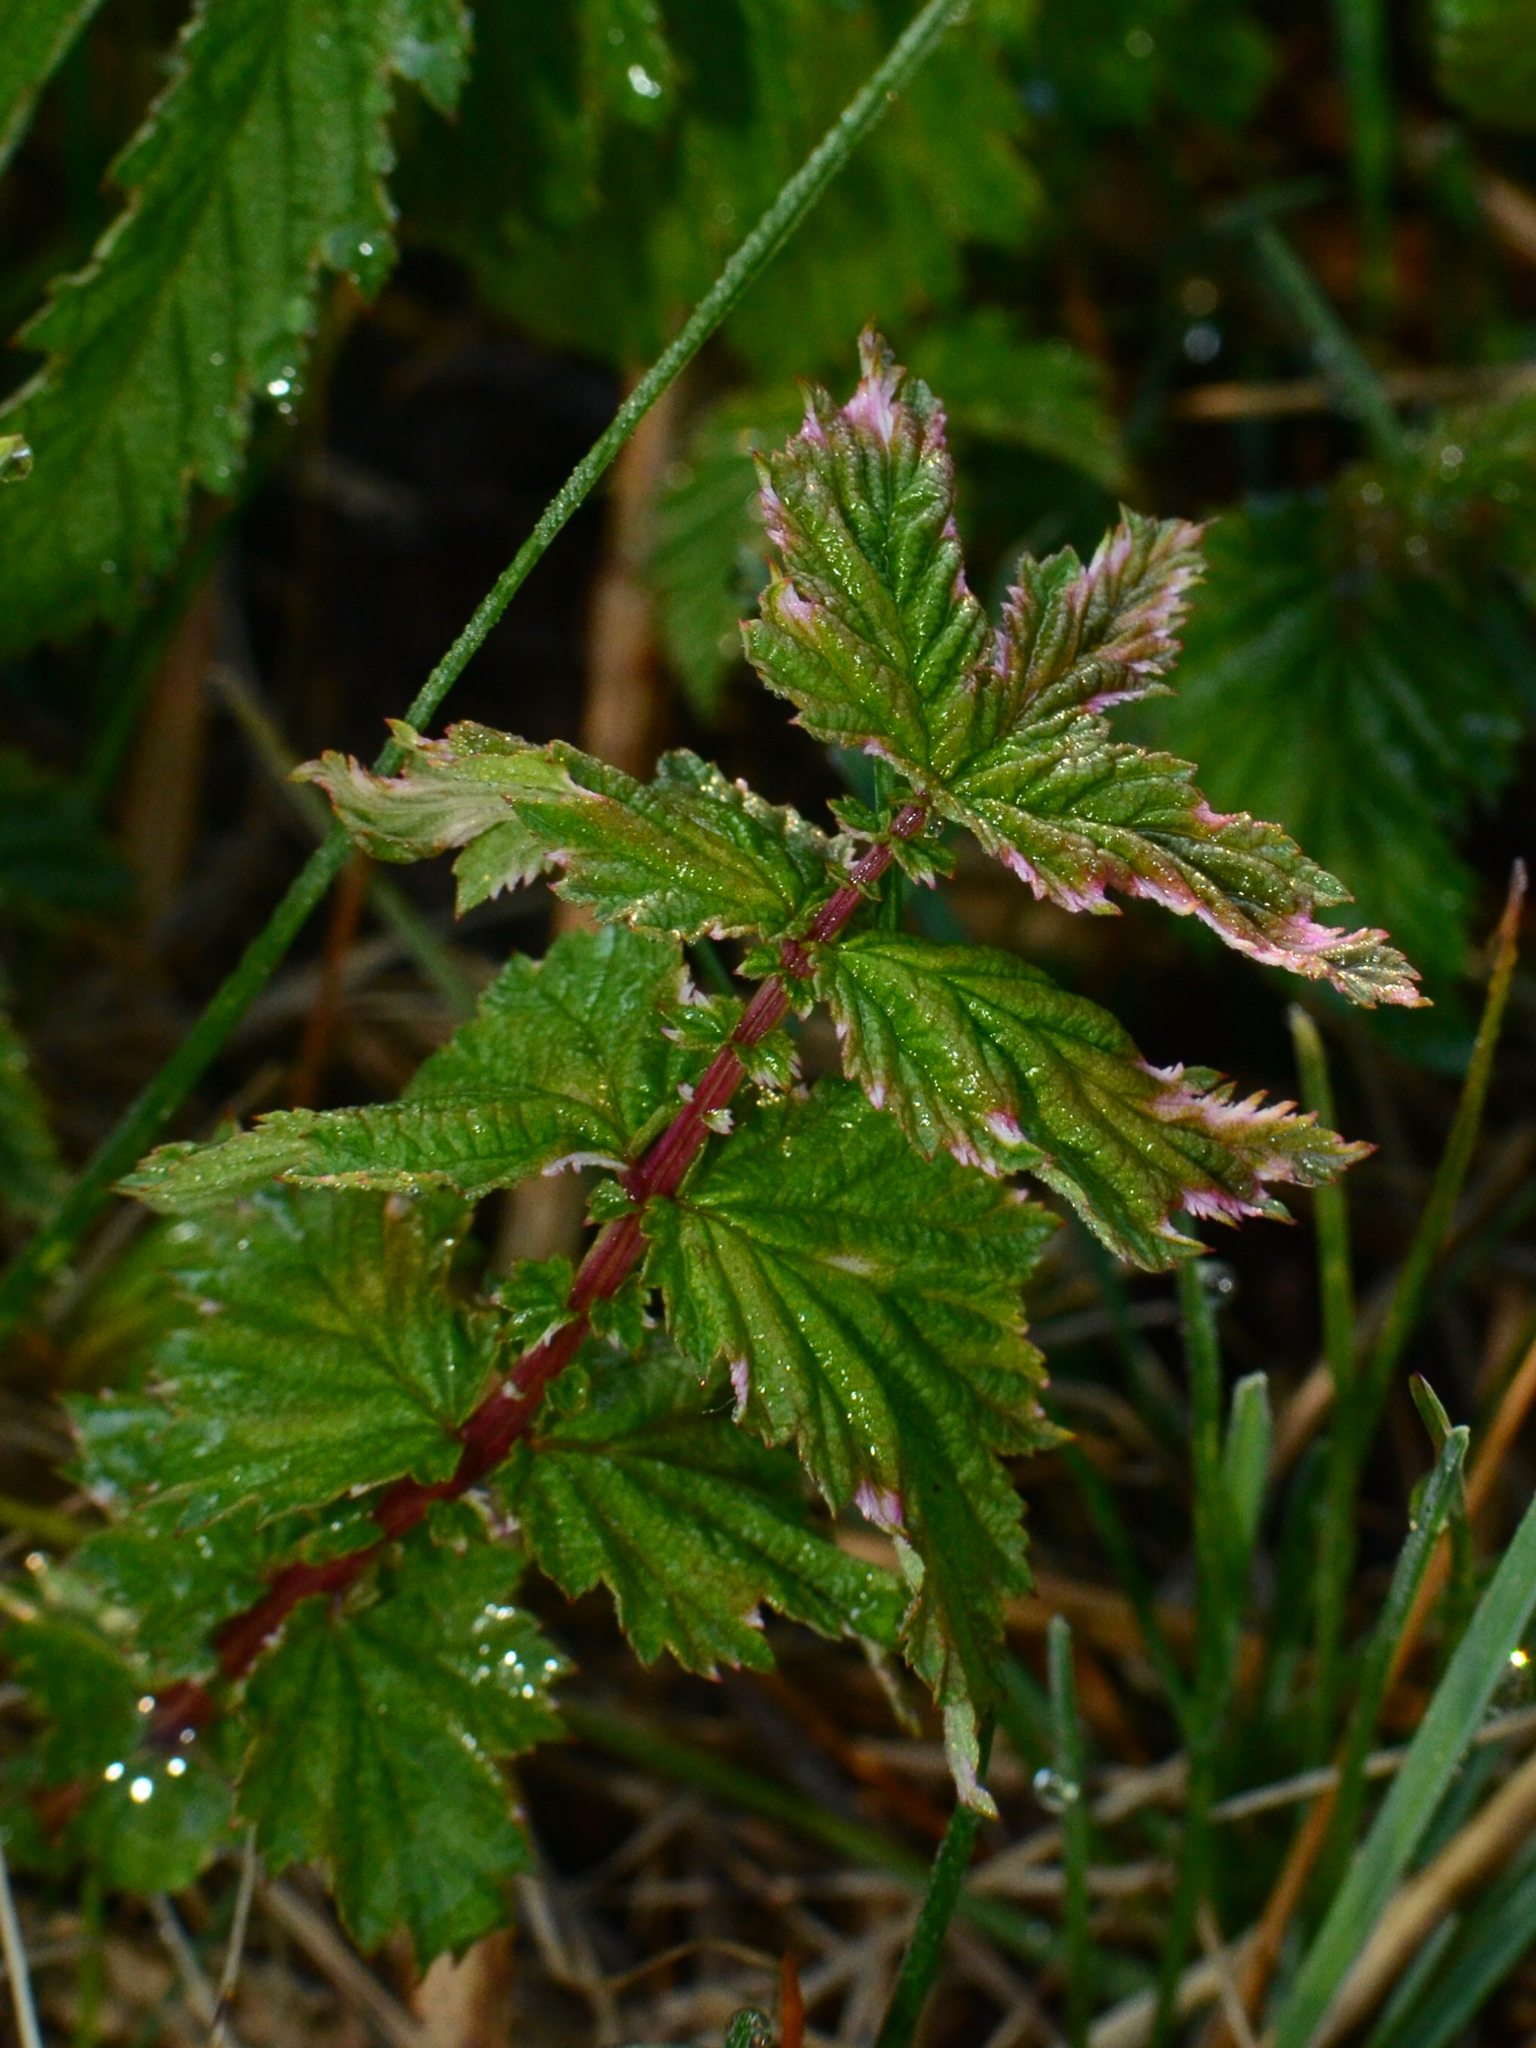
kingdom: Plantae
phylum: Tracheophyta
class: Magnoliopsida
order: Rosales
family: Rosaceae
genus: Filipendula
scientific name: Filipendula ulmaria
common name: Meadowsweet
